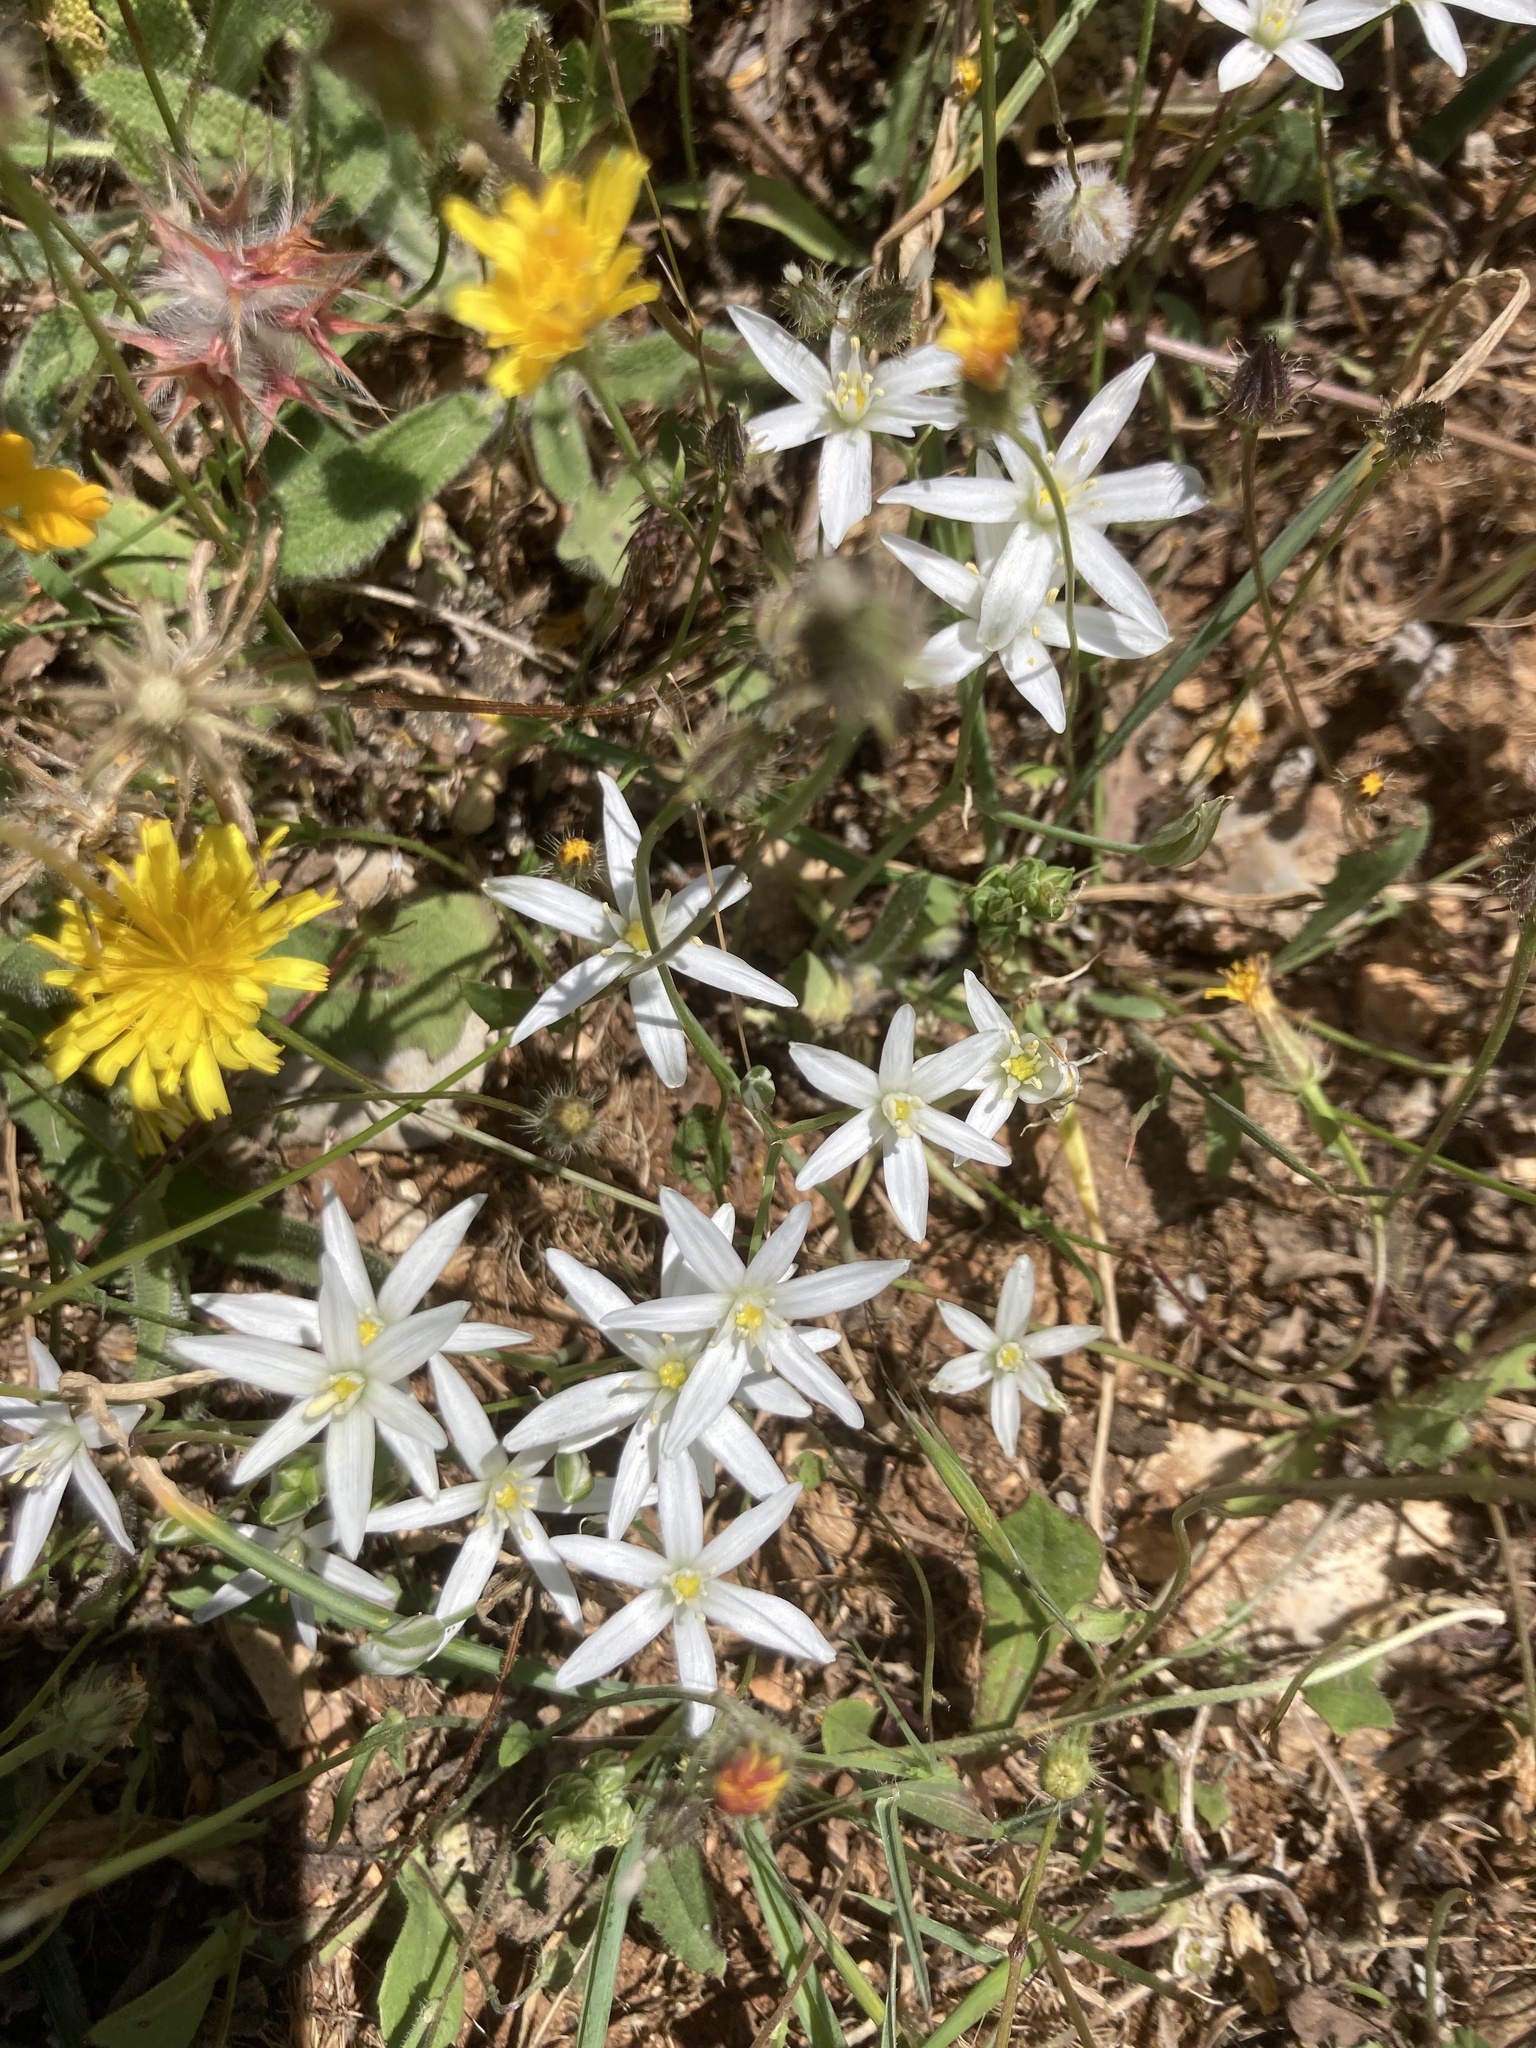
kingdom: Plantae
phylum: Tracheophyta
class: Magnoliopsida
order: Fabales
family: Fabaceae
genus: Trifolium
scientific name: Trifolium stellatum
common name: Starry clover
